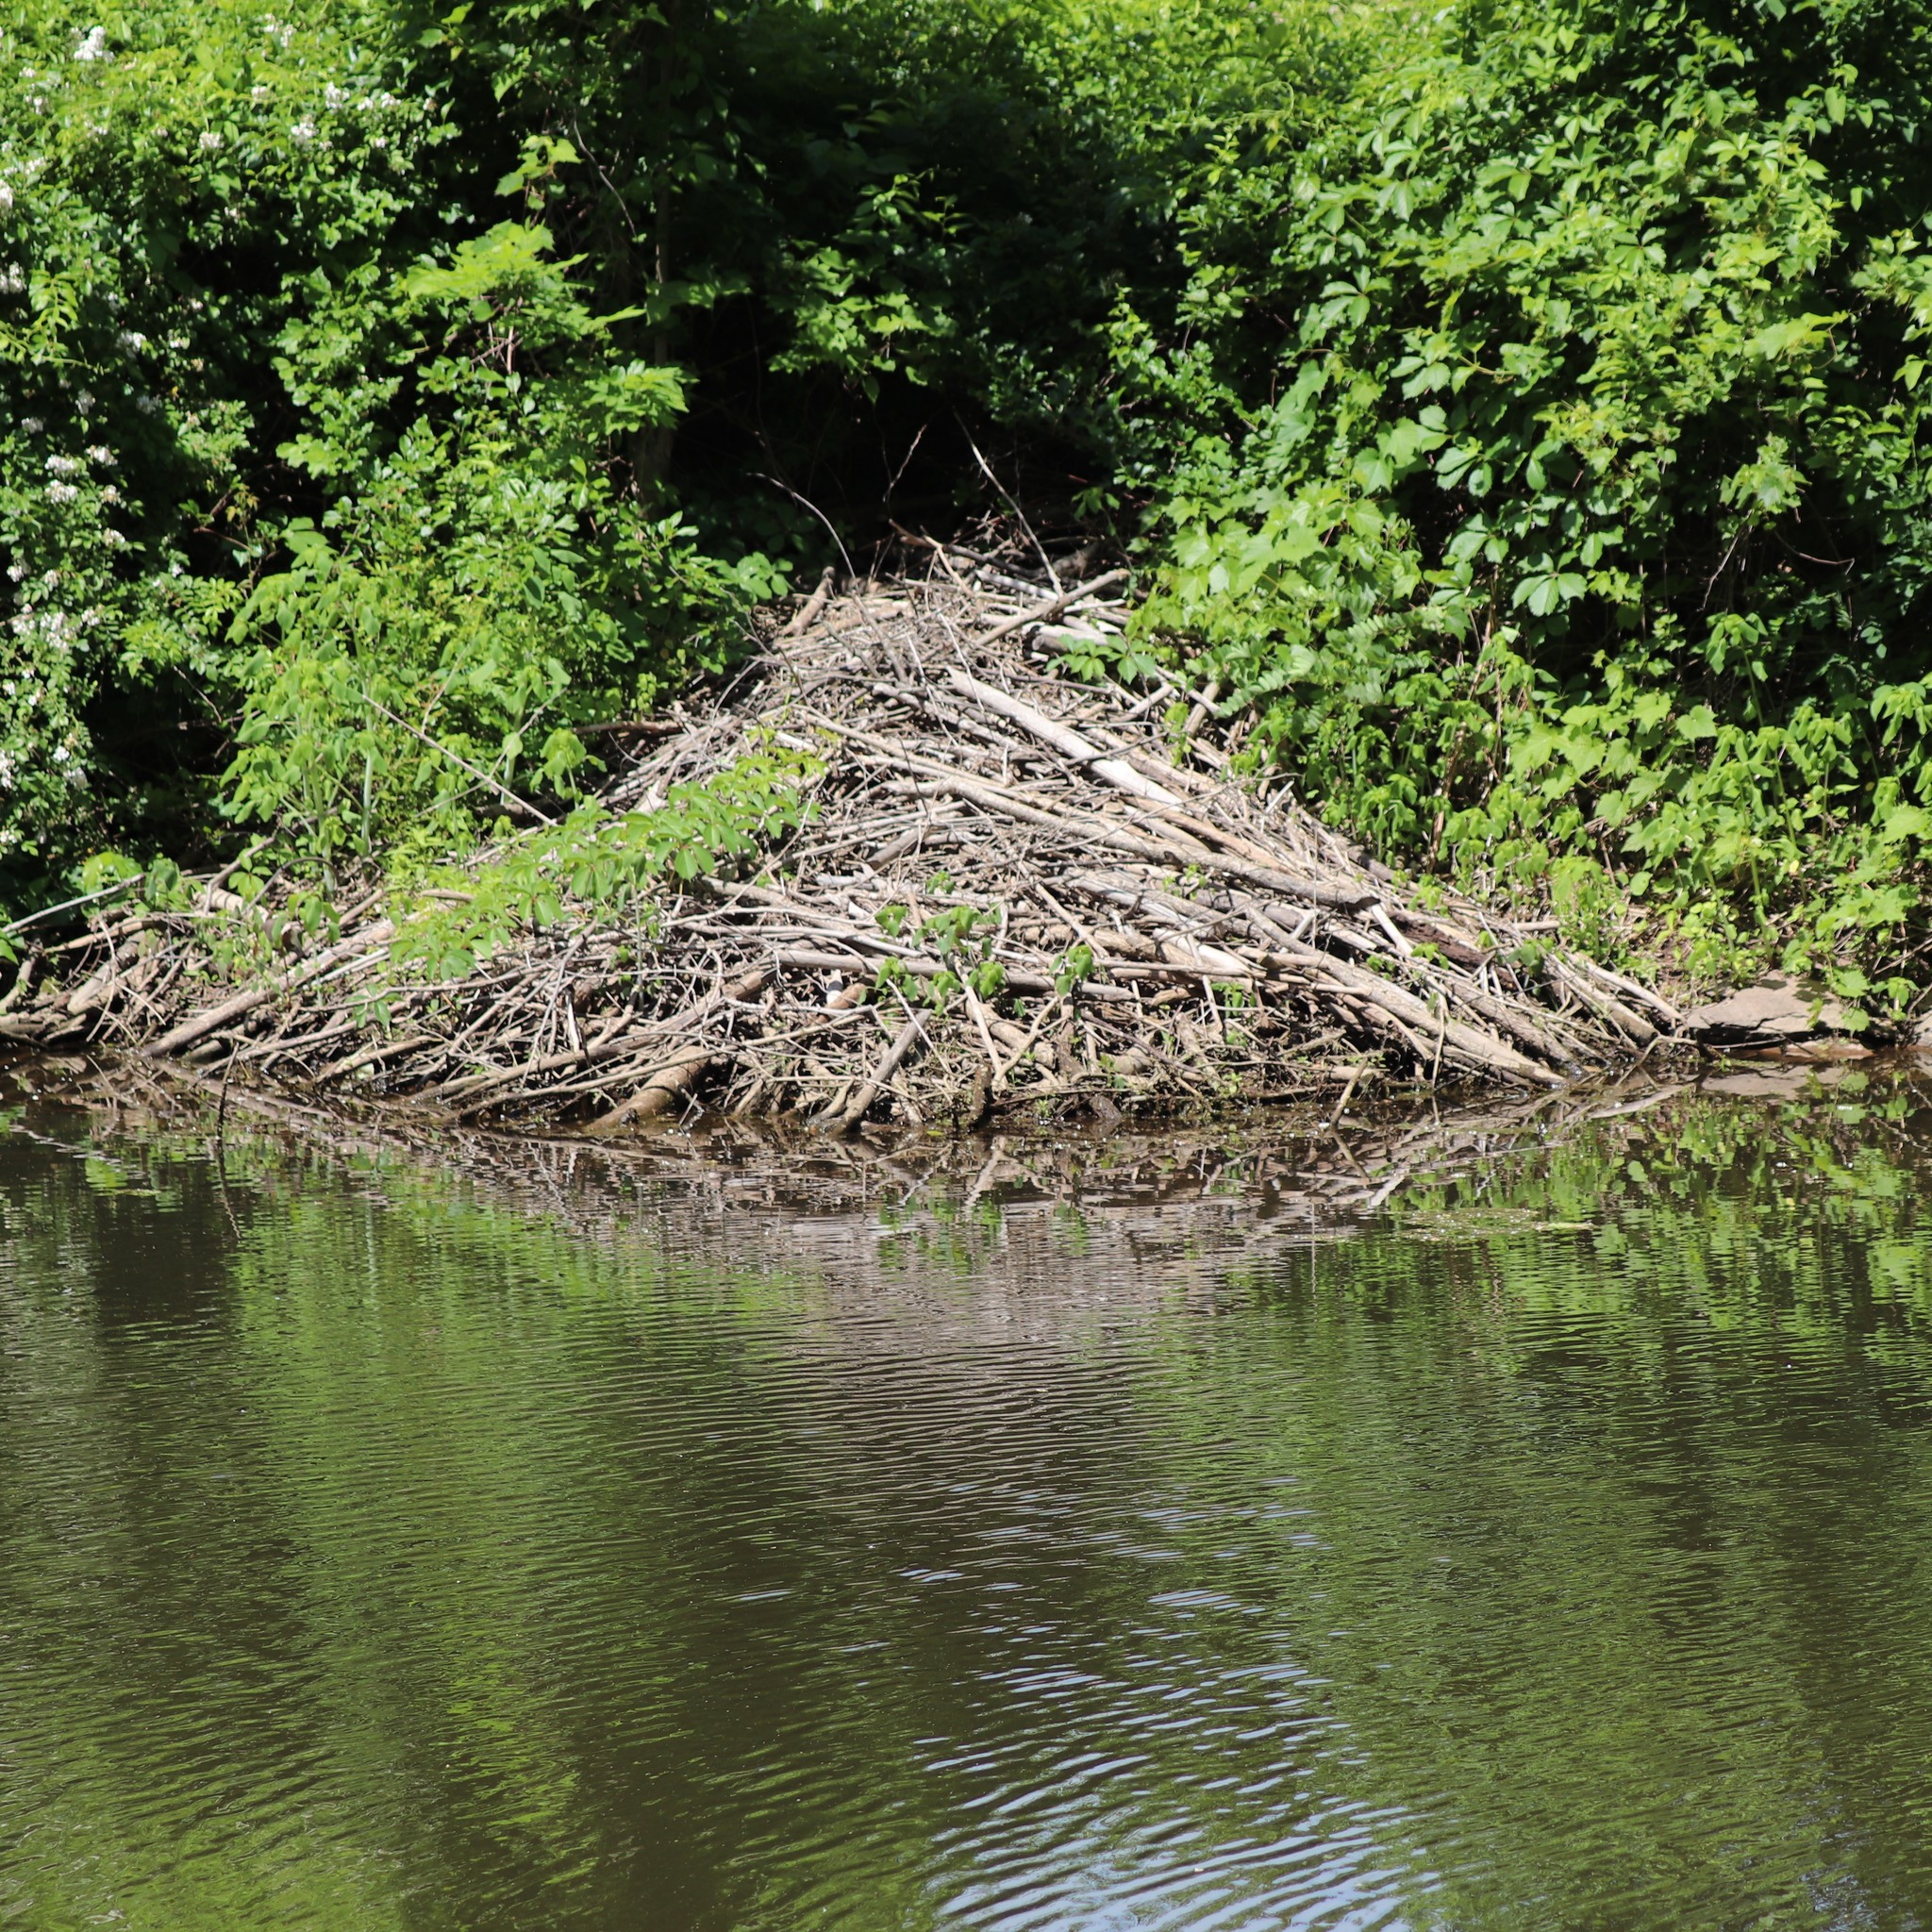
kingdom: Animalia
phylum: Chordata
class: Mammalia
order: Rodentia
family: Castoridae
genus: Castor
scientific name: Castor canadensis
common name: American beaver
